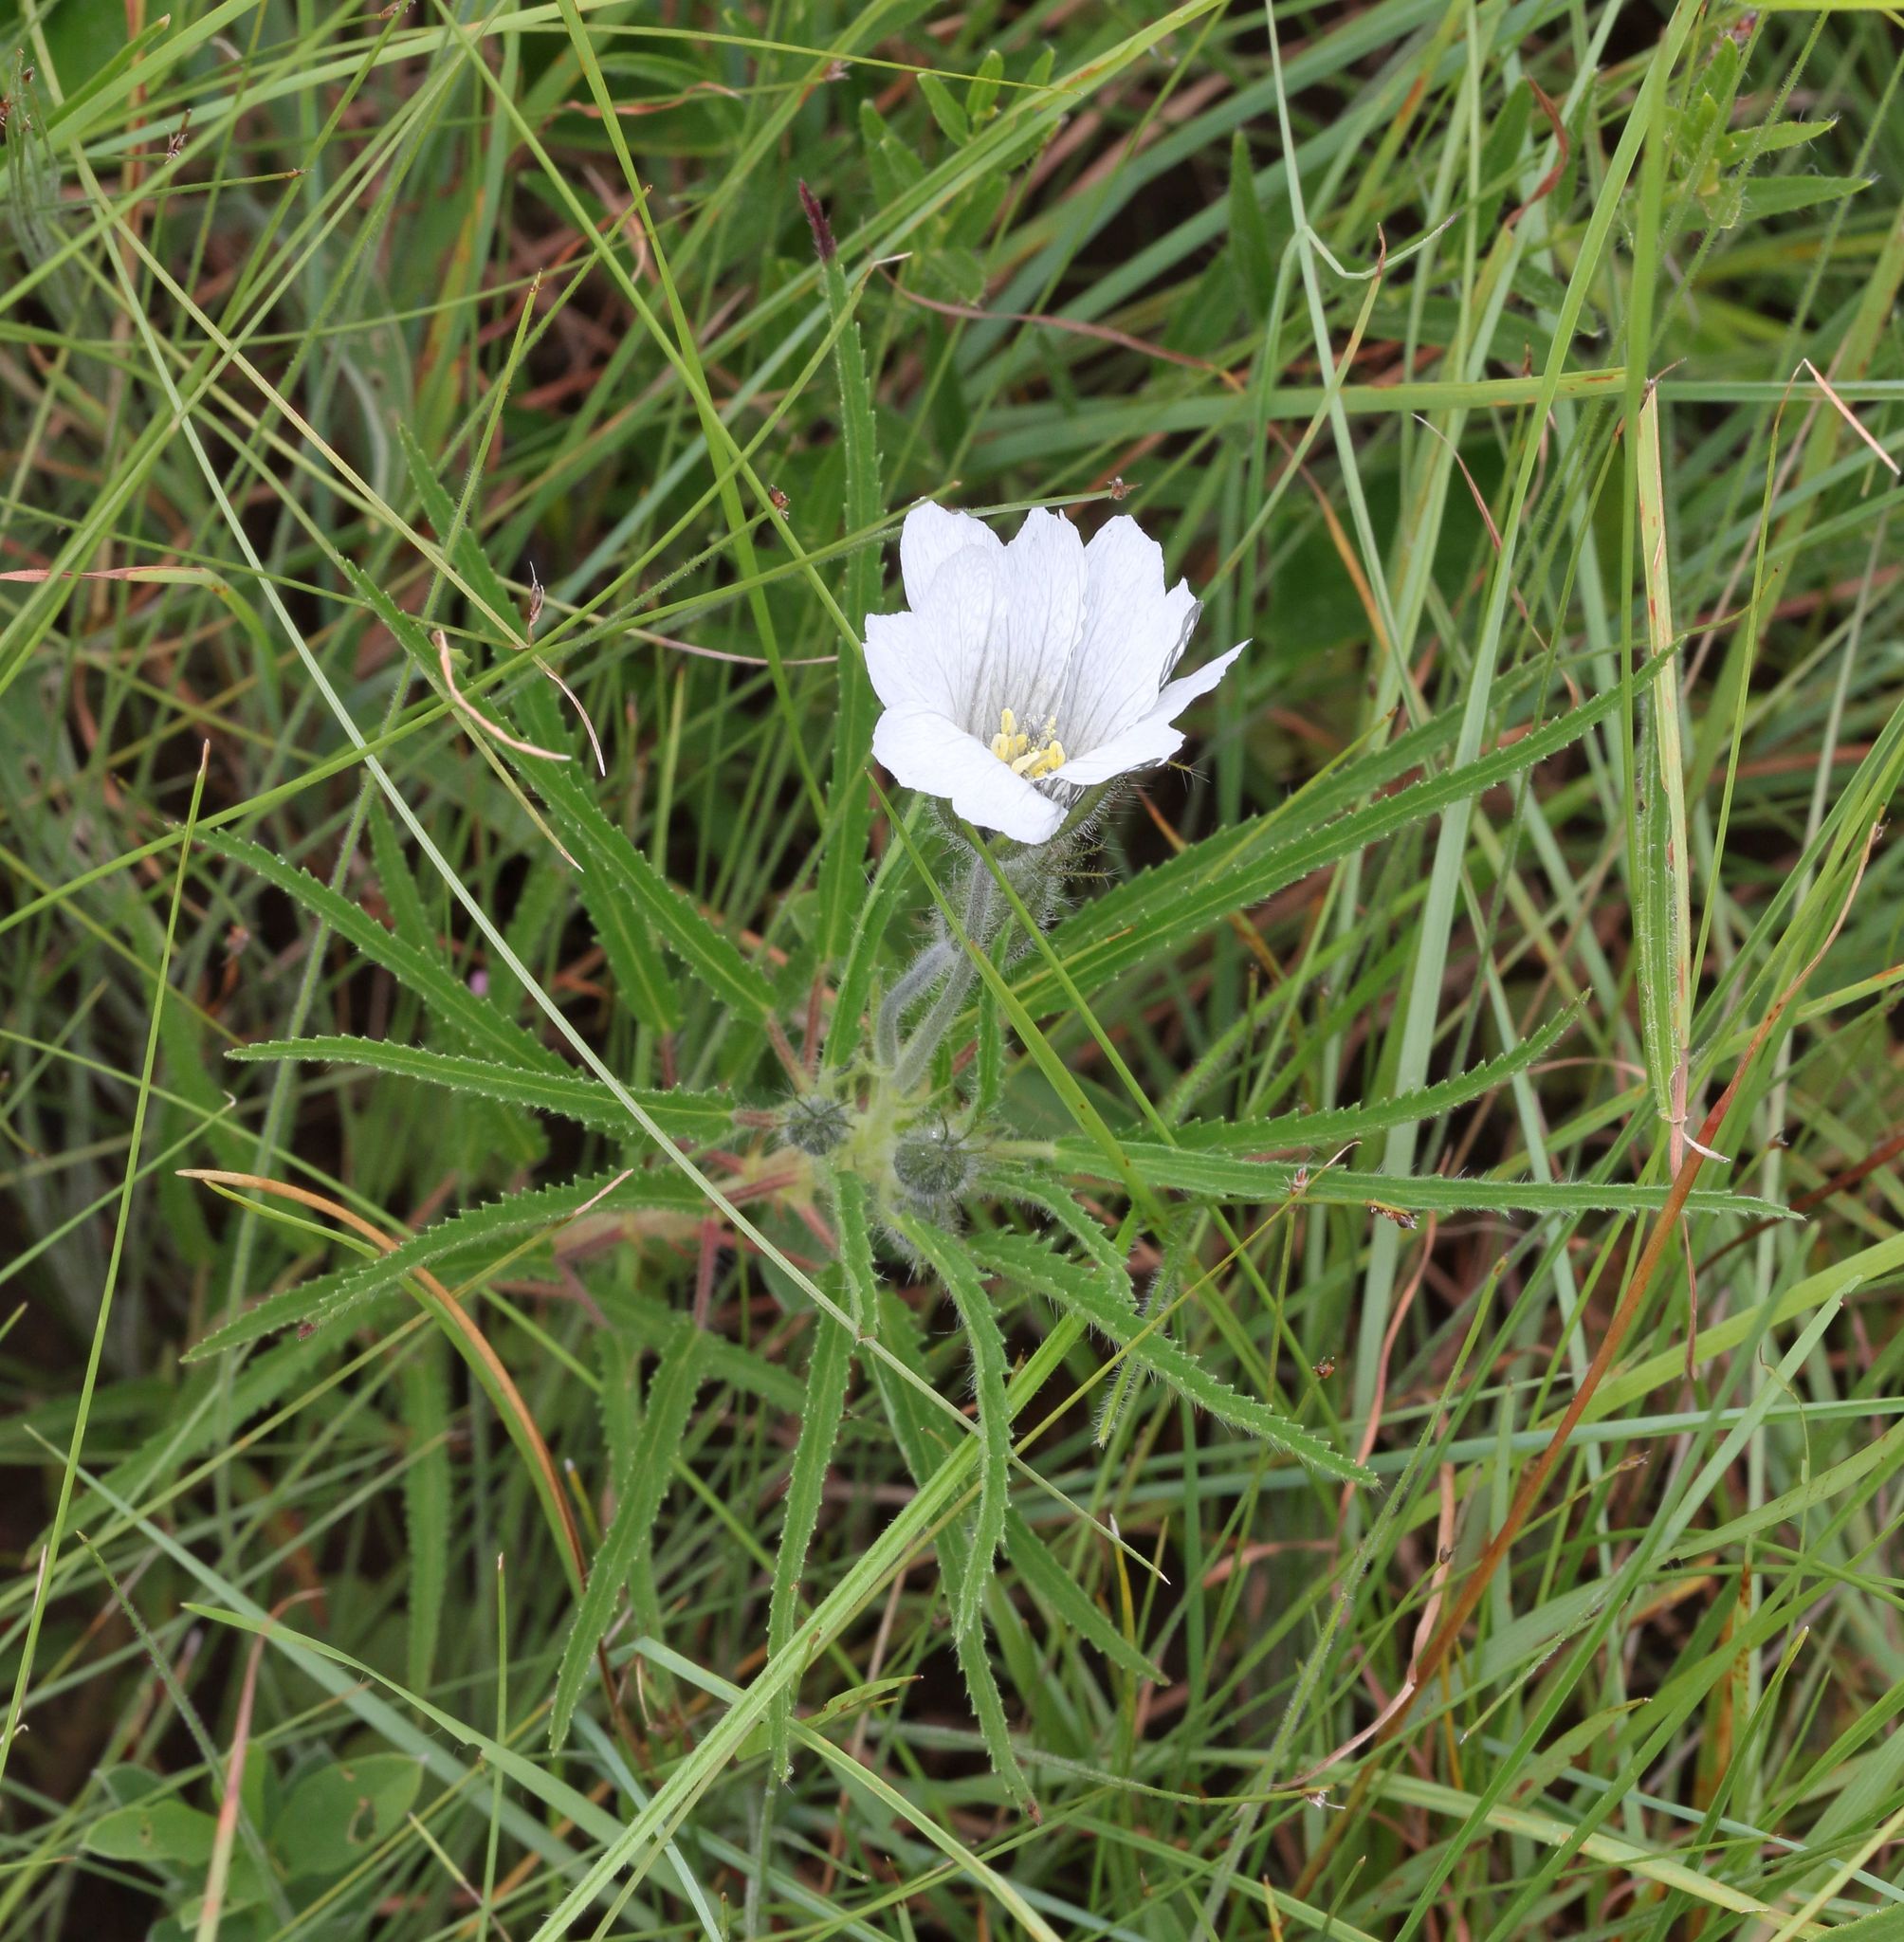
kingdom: Plantae
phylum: Tracheophyta
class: Magnoliopsida
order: Geraniales
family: Geraniaceae
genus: Monsonia
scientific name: Monsonia attenuata
